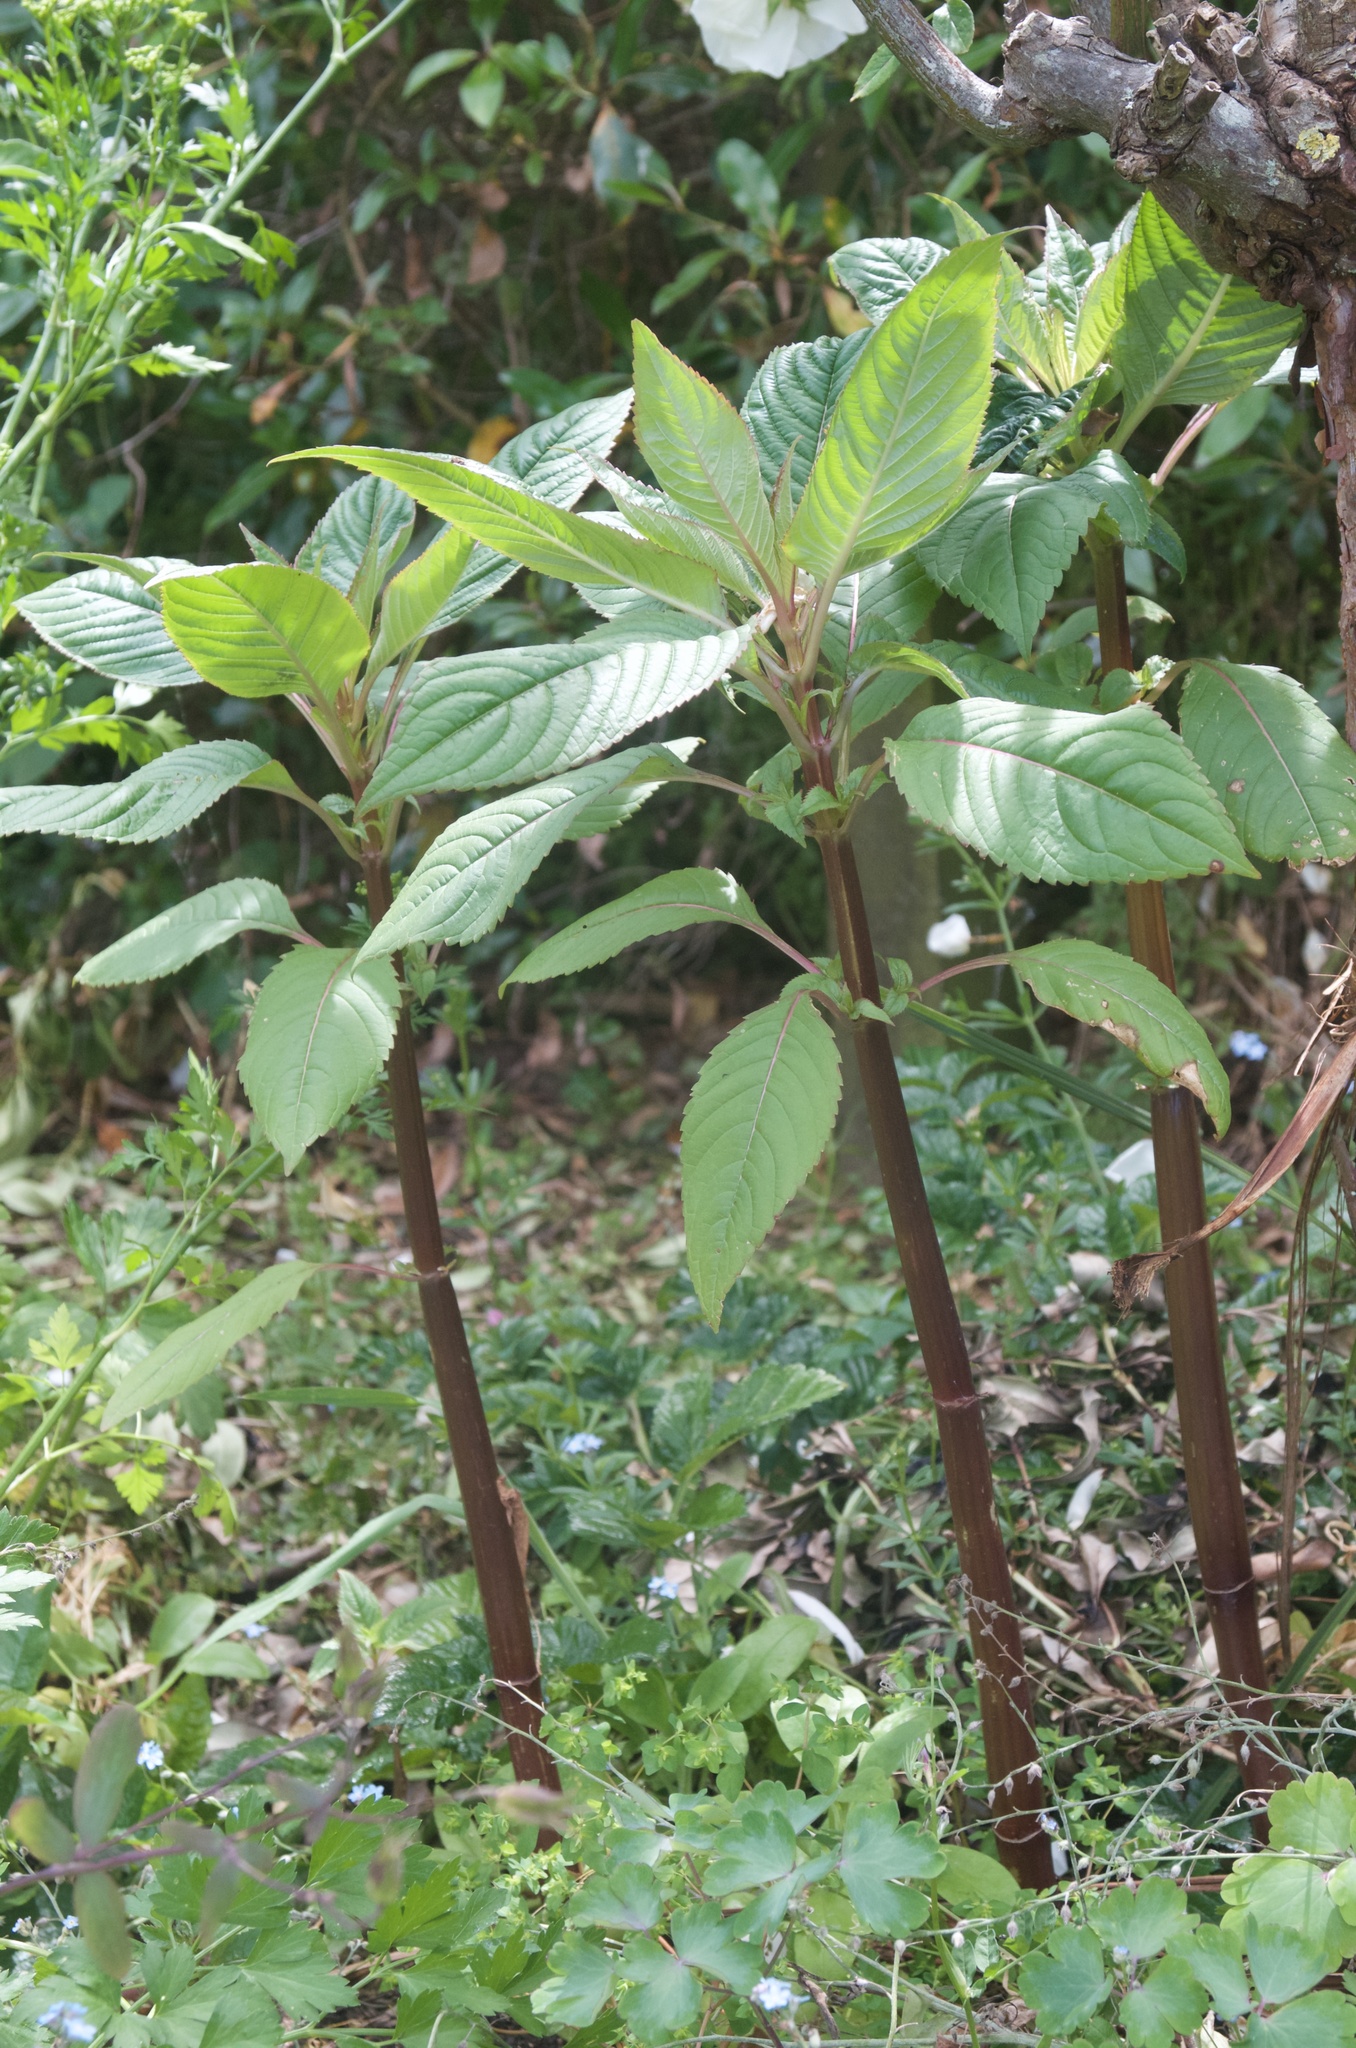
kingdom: Plantae
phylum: Tracheophyta
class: Magnoliopsida
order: Ericales
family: Balsaminaceae
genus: Impatiens
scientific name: Impatiens glandulifera
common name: Himalayan balsam
